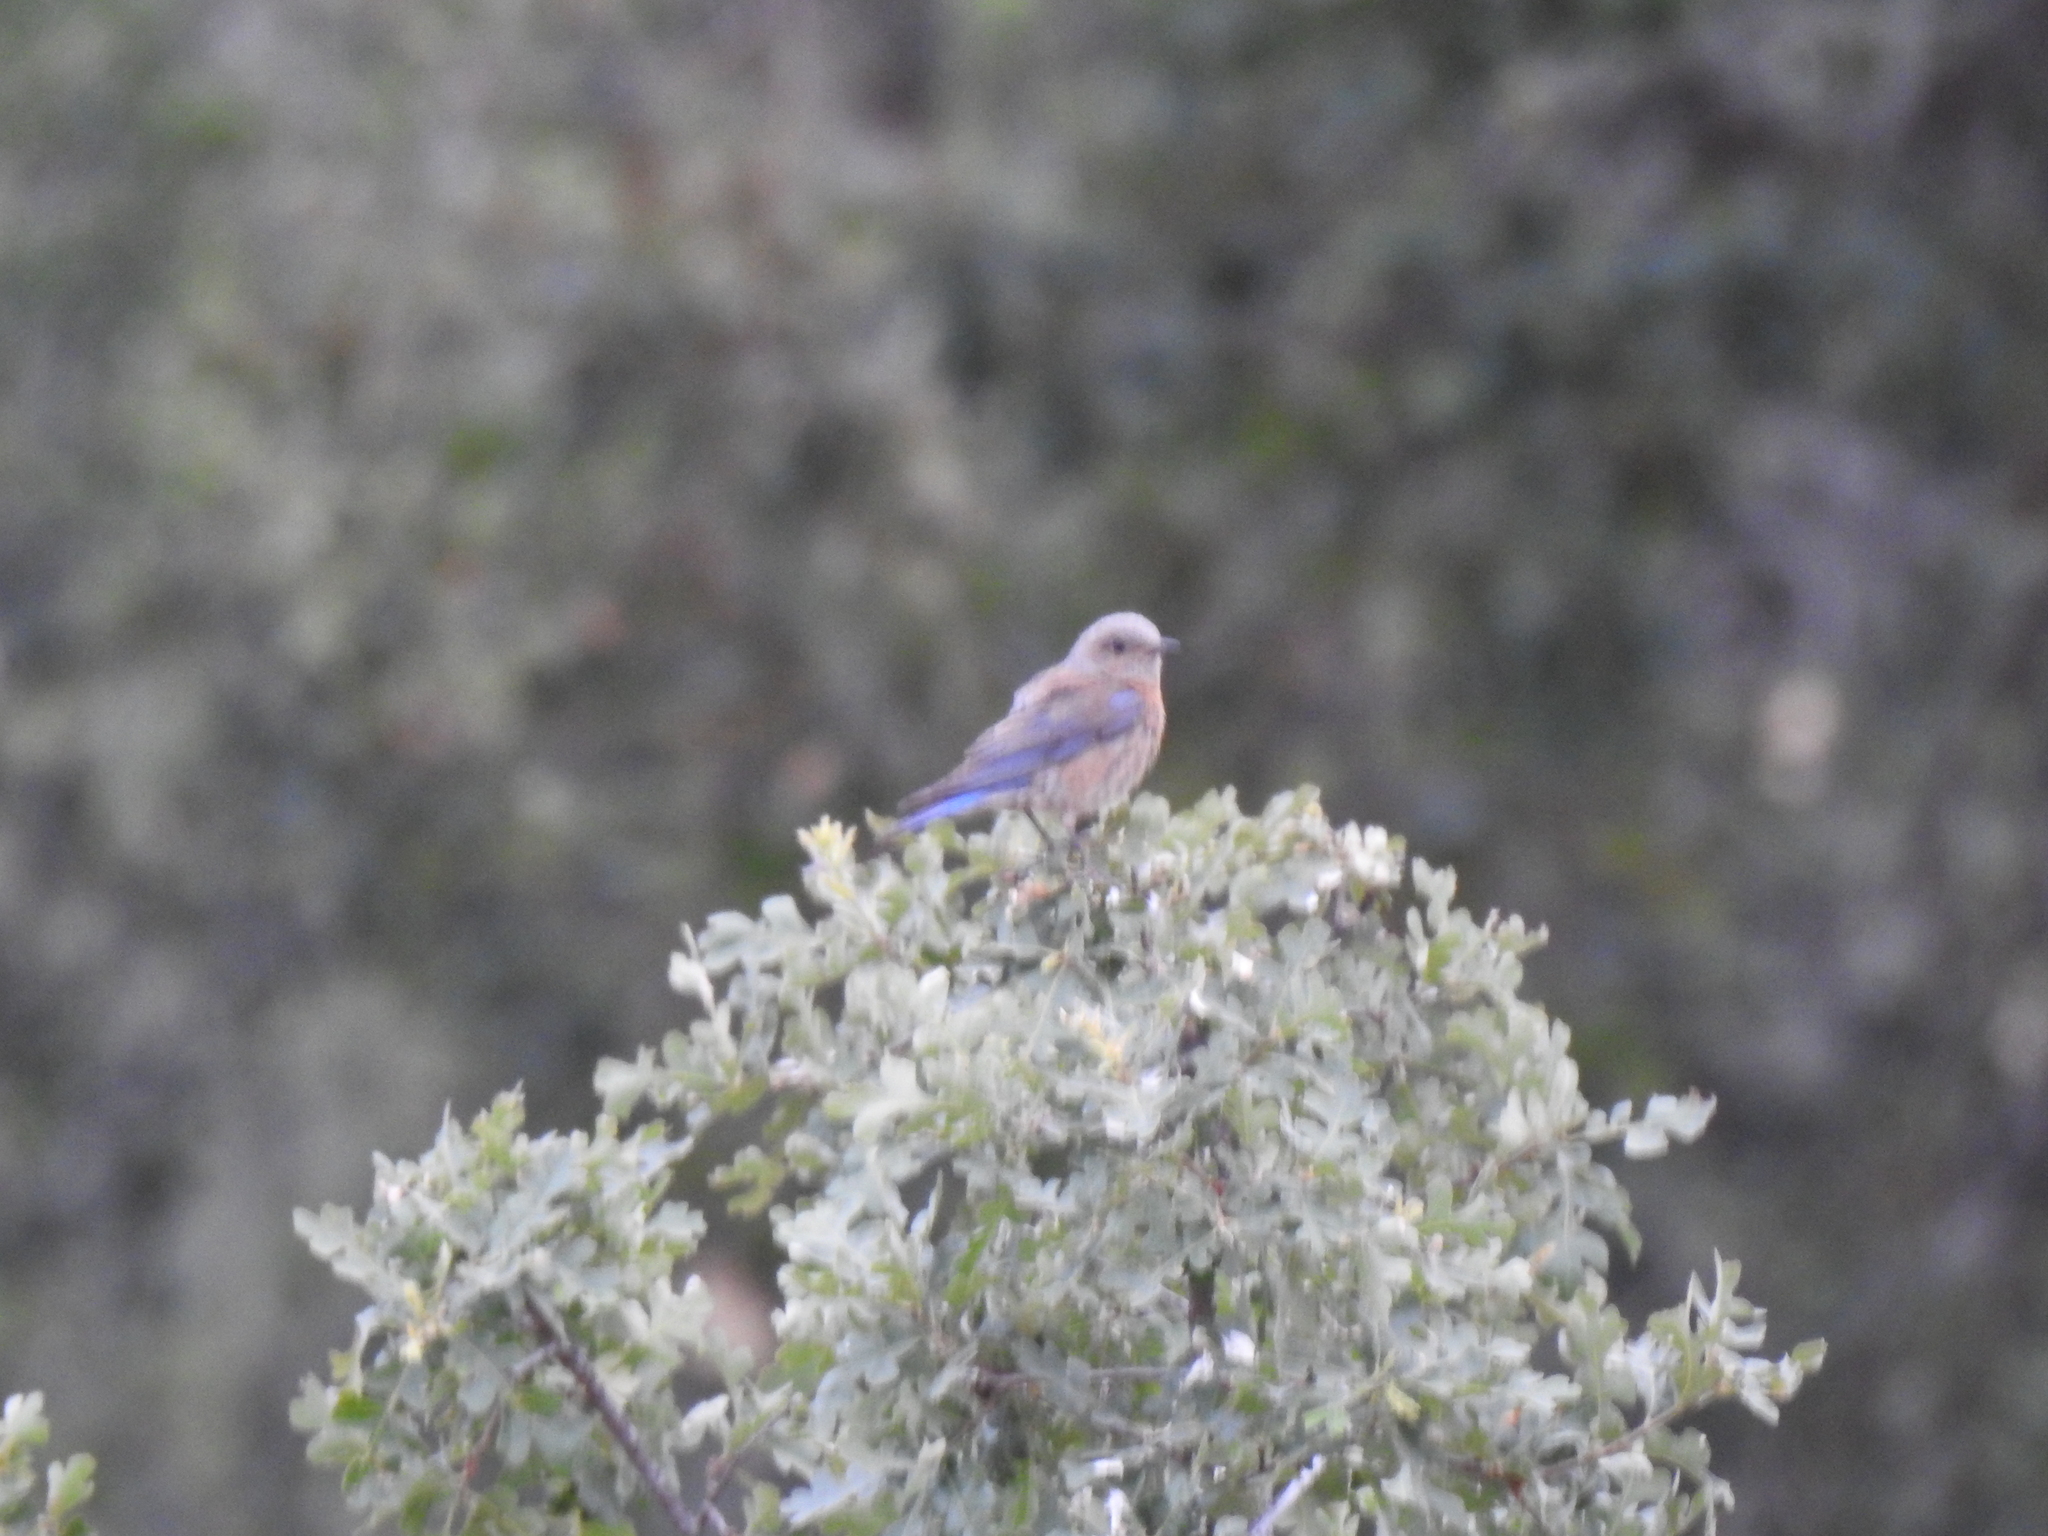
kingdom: Animalia
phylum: Chordata
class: Aves
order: Passeriformes
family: Turdidae
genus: Sialia
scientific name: Sialia mexicana
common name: Western bluebird
